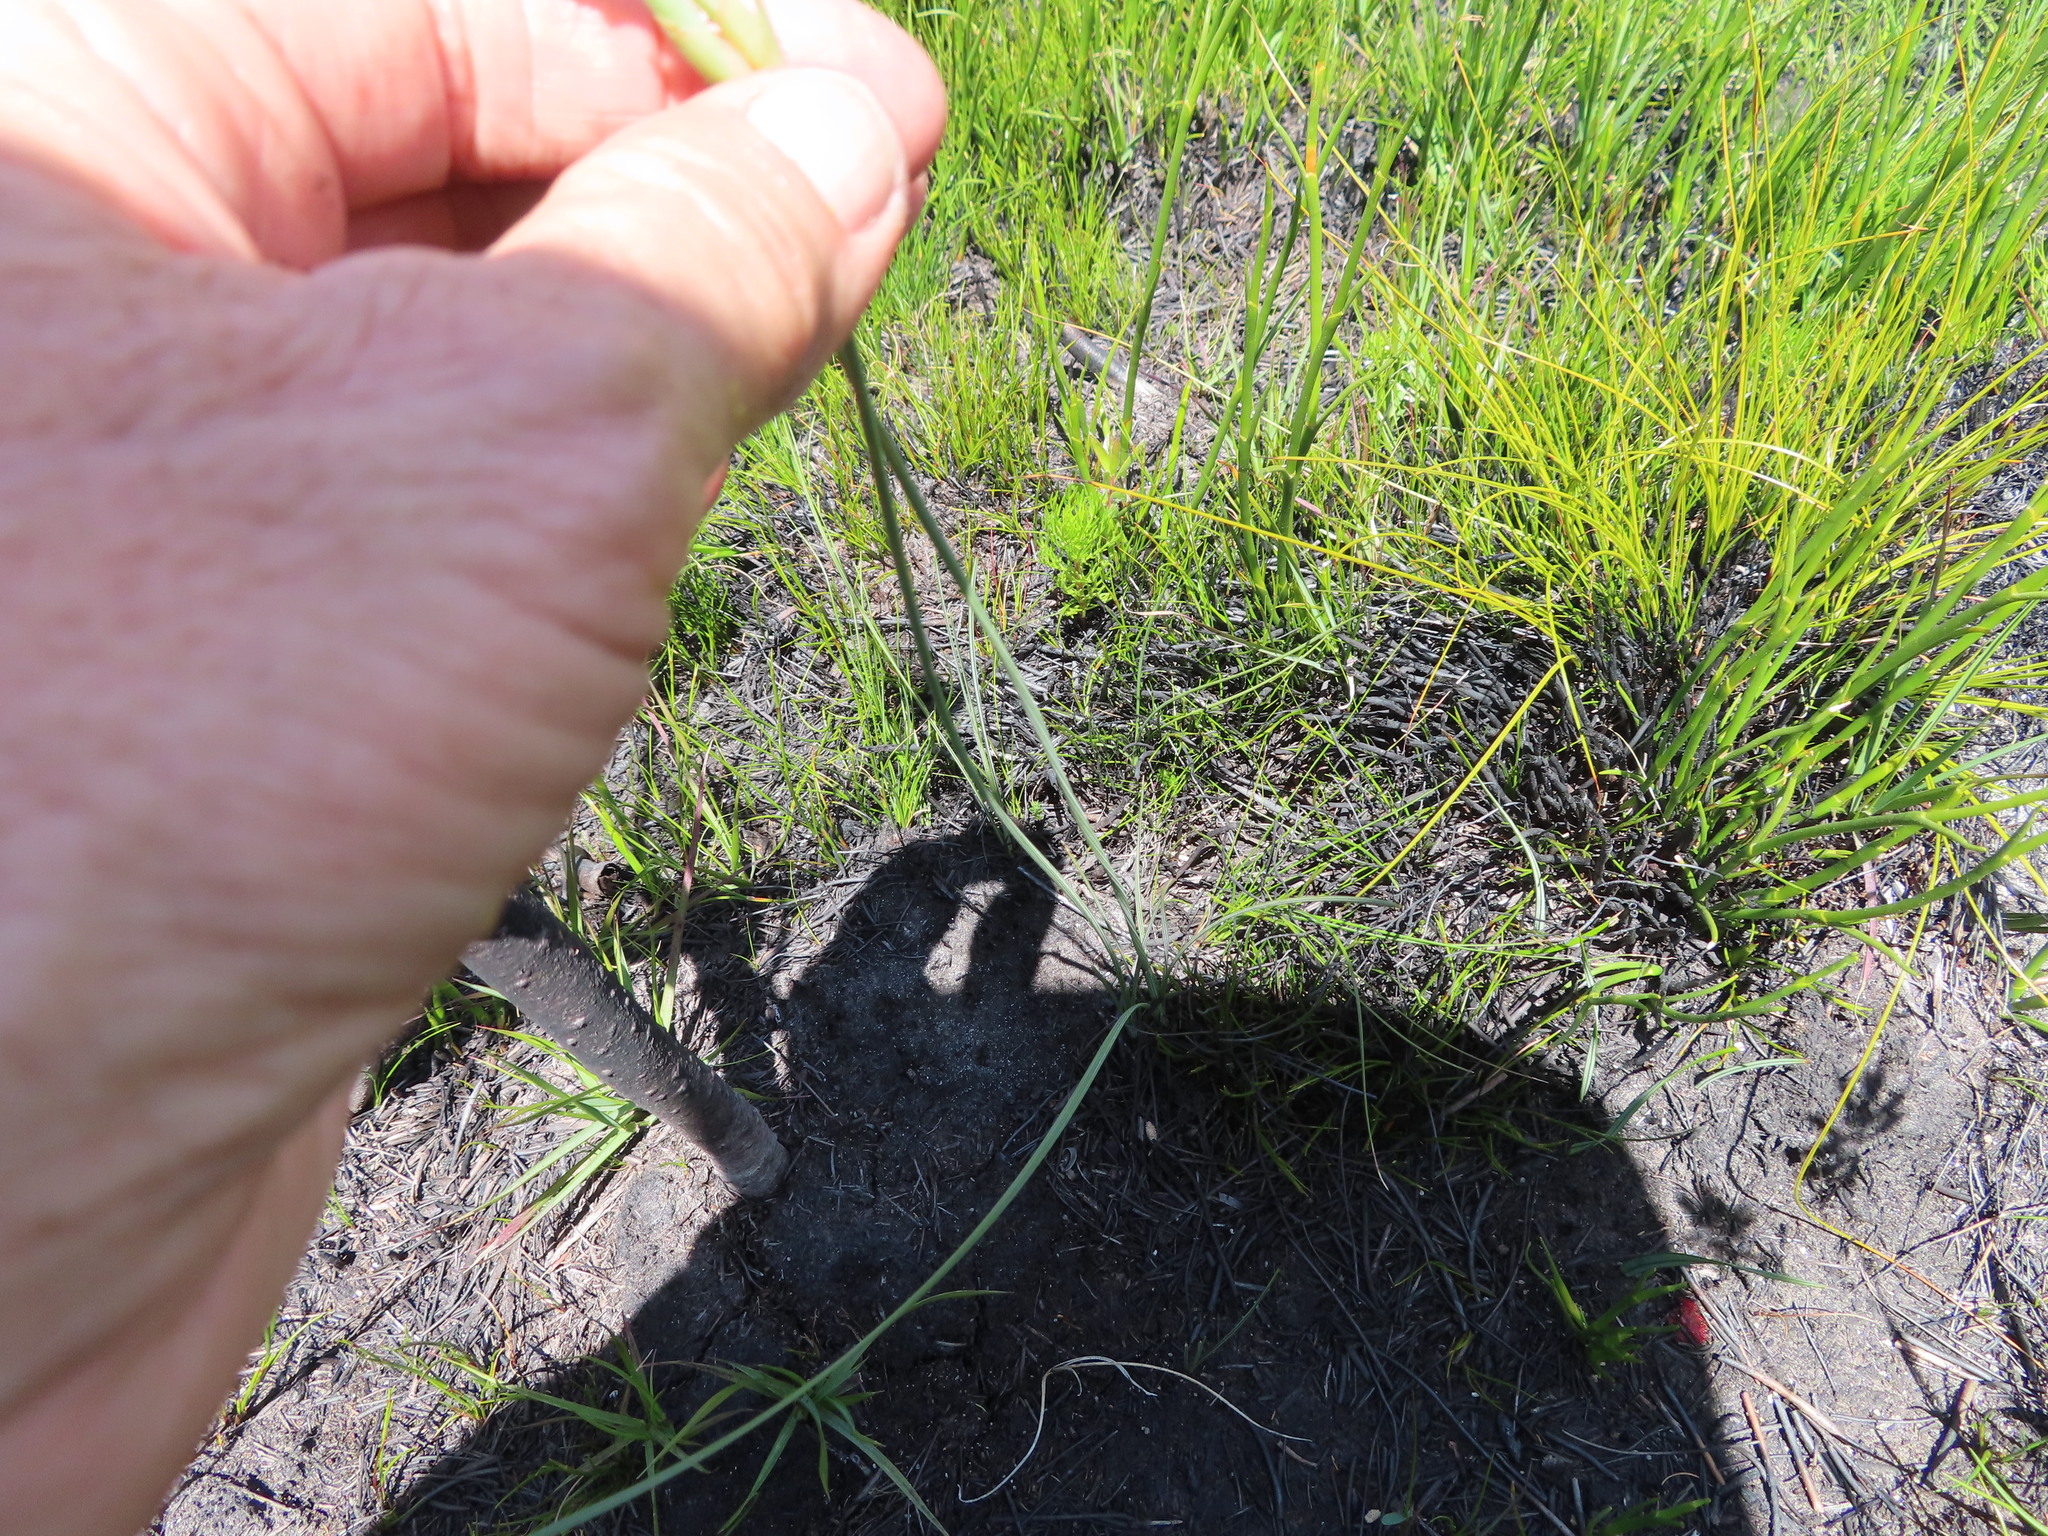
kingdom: Plantae
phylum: Tracheophyta
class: Liliopsida
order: Asparagales
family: Iridaceae
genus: Bobartia
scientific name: Bobartia filiformis
